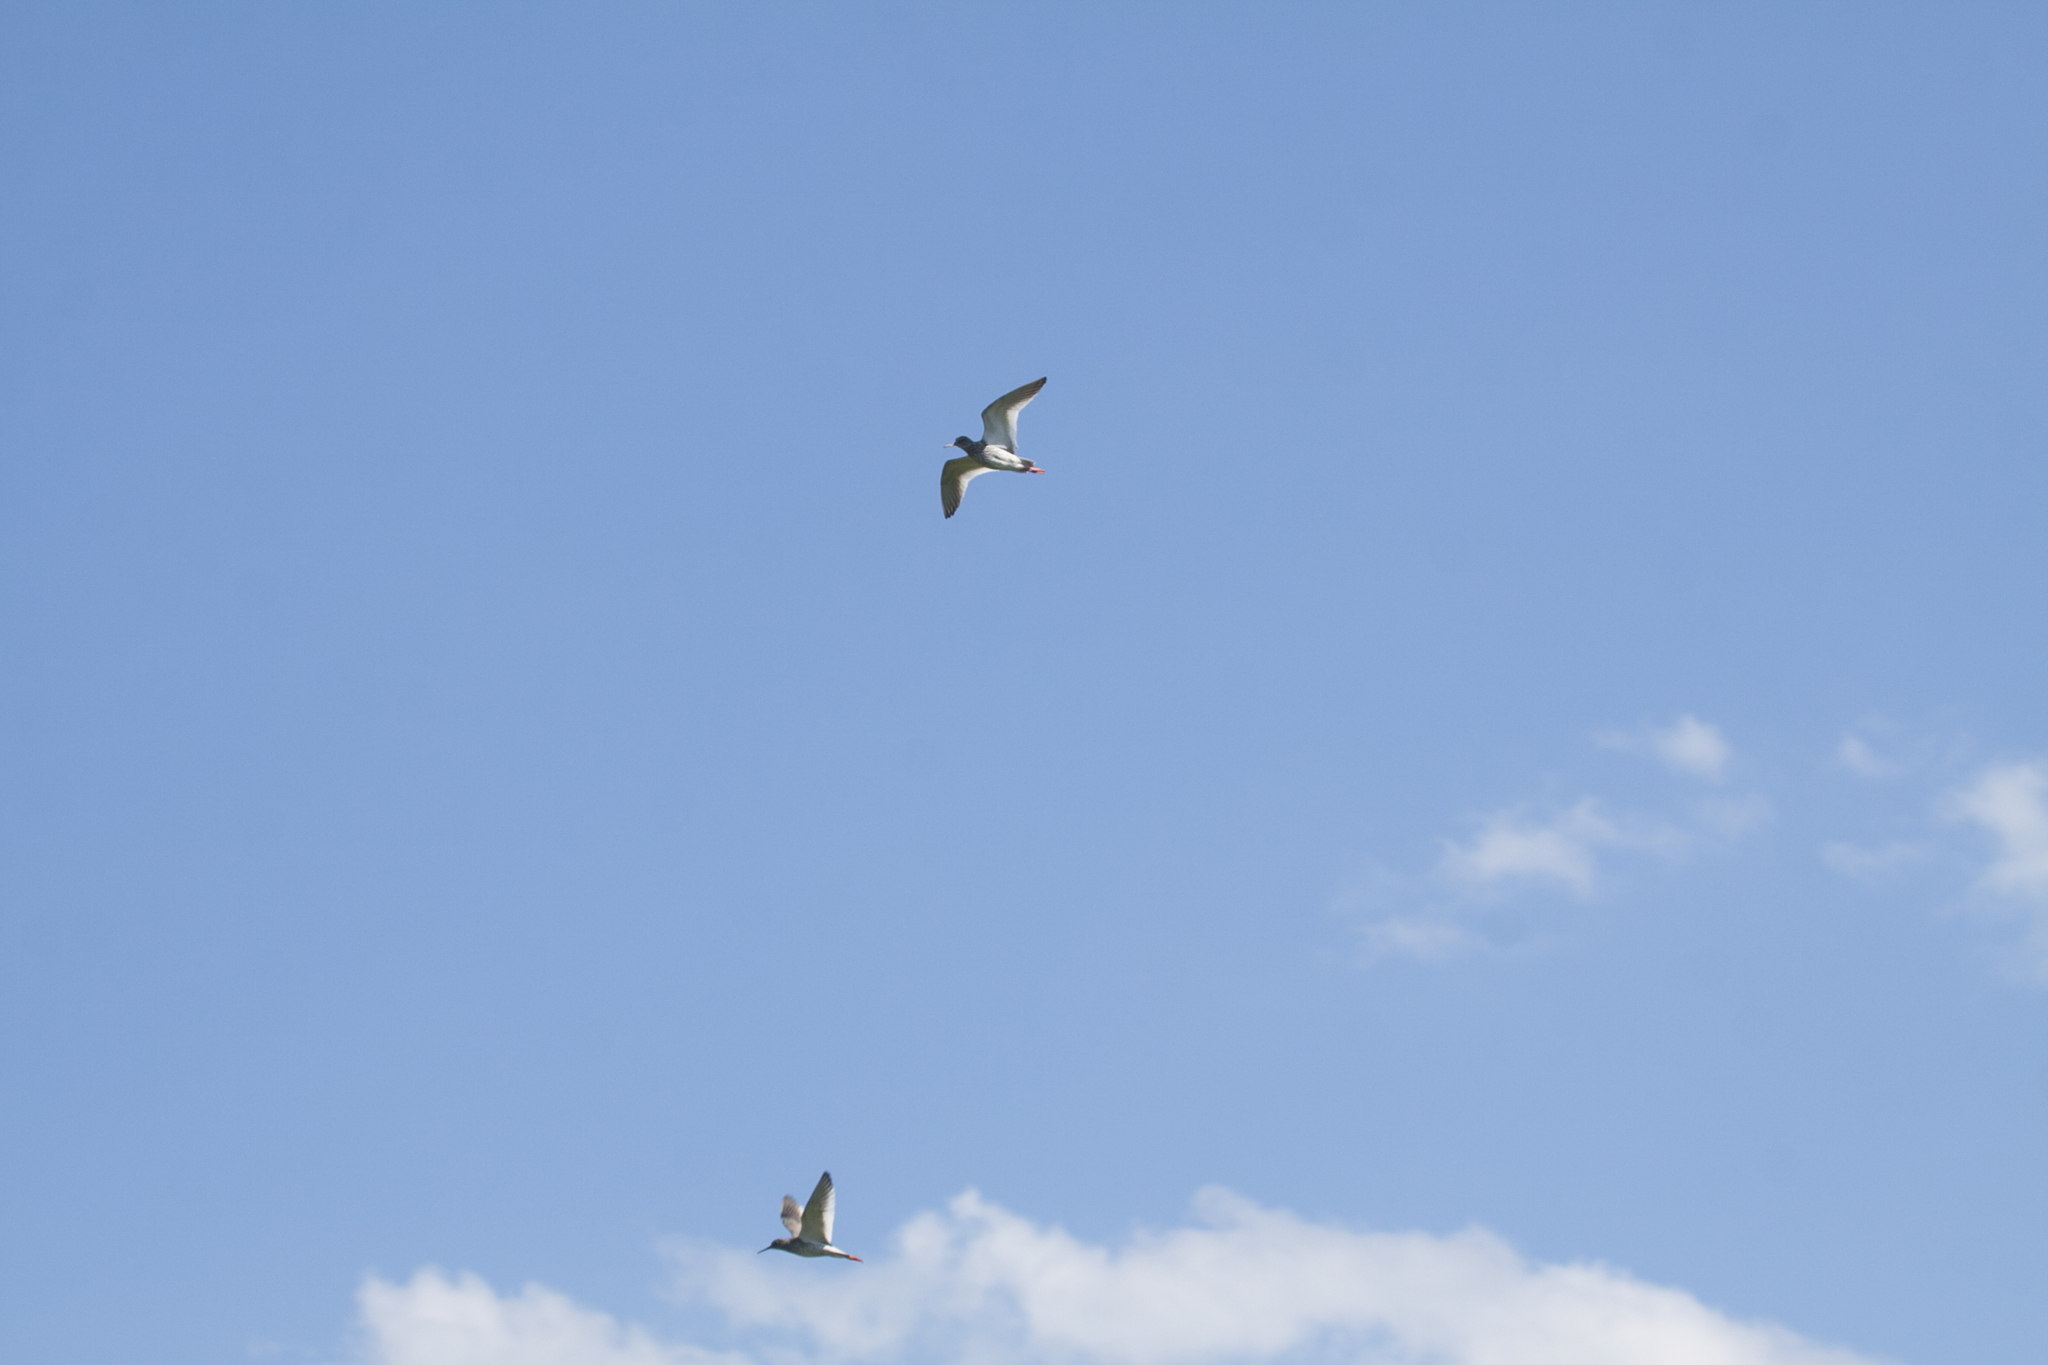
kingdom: Animalia
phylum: Chordata
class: Aves
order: Charadriiformes
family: Scolopacidae
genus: Tringa
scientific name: Tringa totanus
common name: Common redshank
